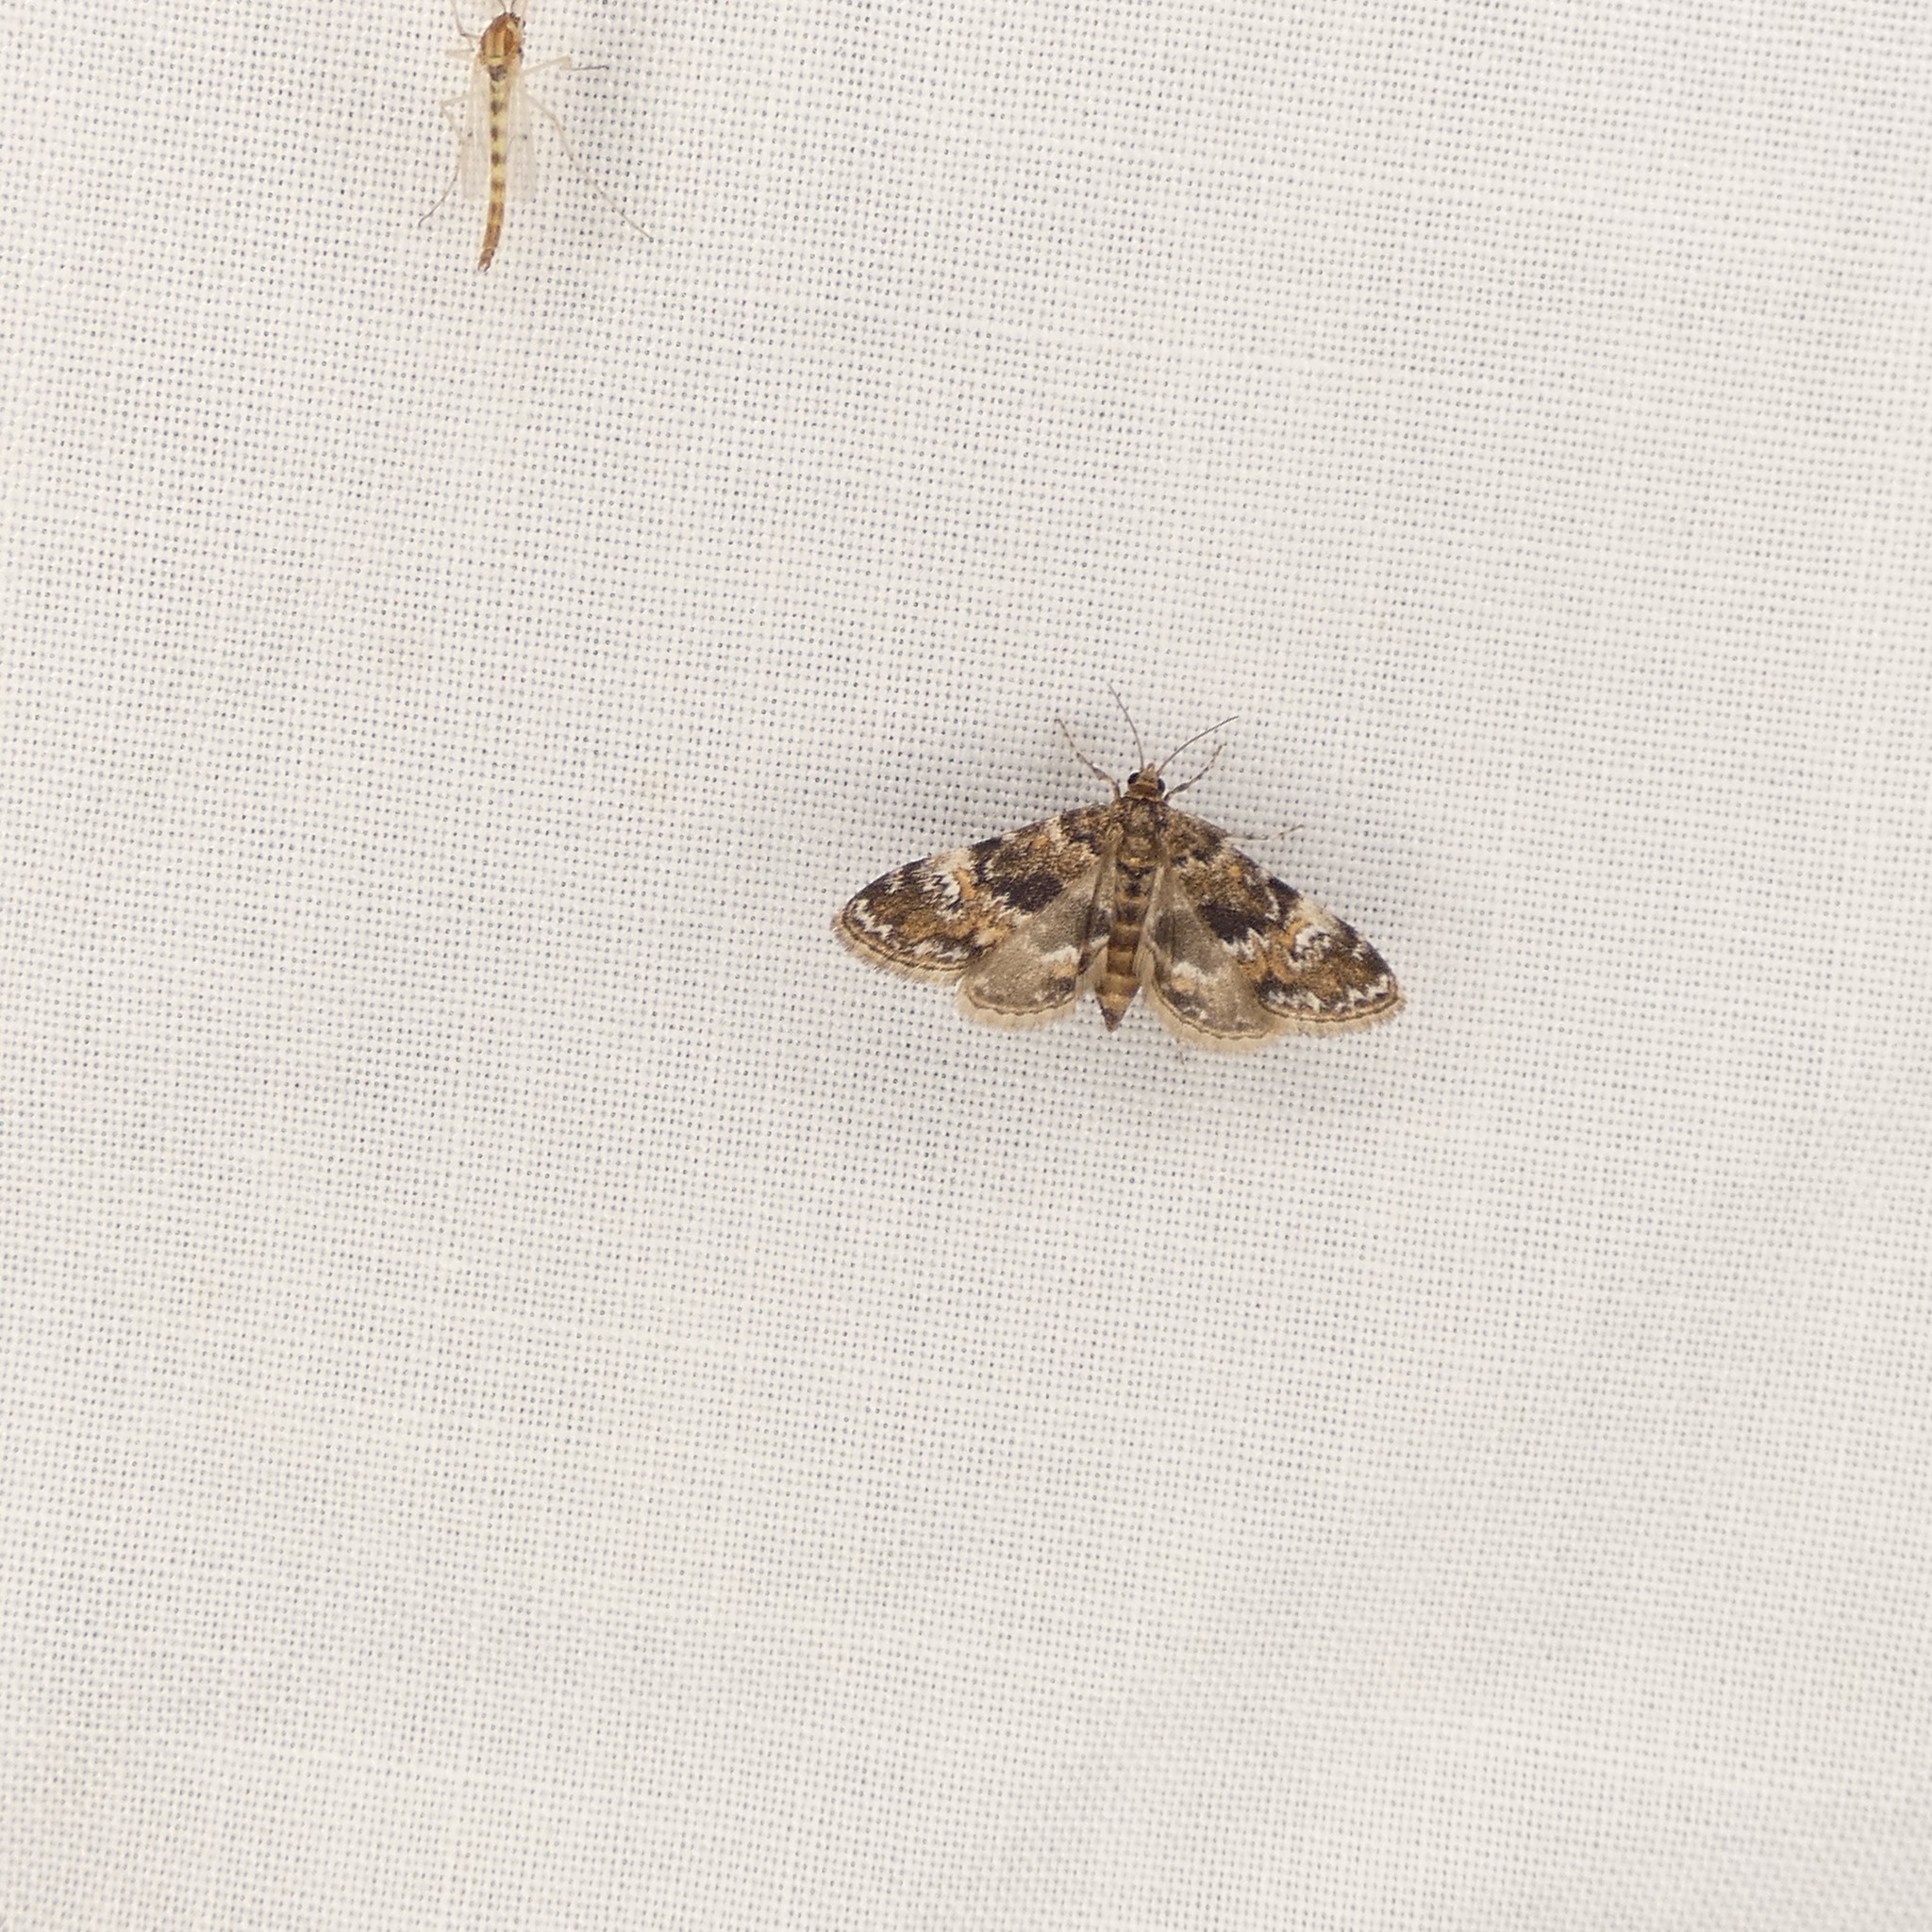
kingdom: Animalia
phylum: Arthropoda
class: Insecta
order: Lepidoptera
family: Crambidae
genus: Elophila
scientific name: Elophila obliteralis
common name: Waterlily leafcutter moth
